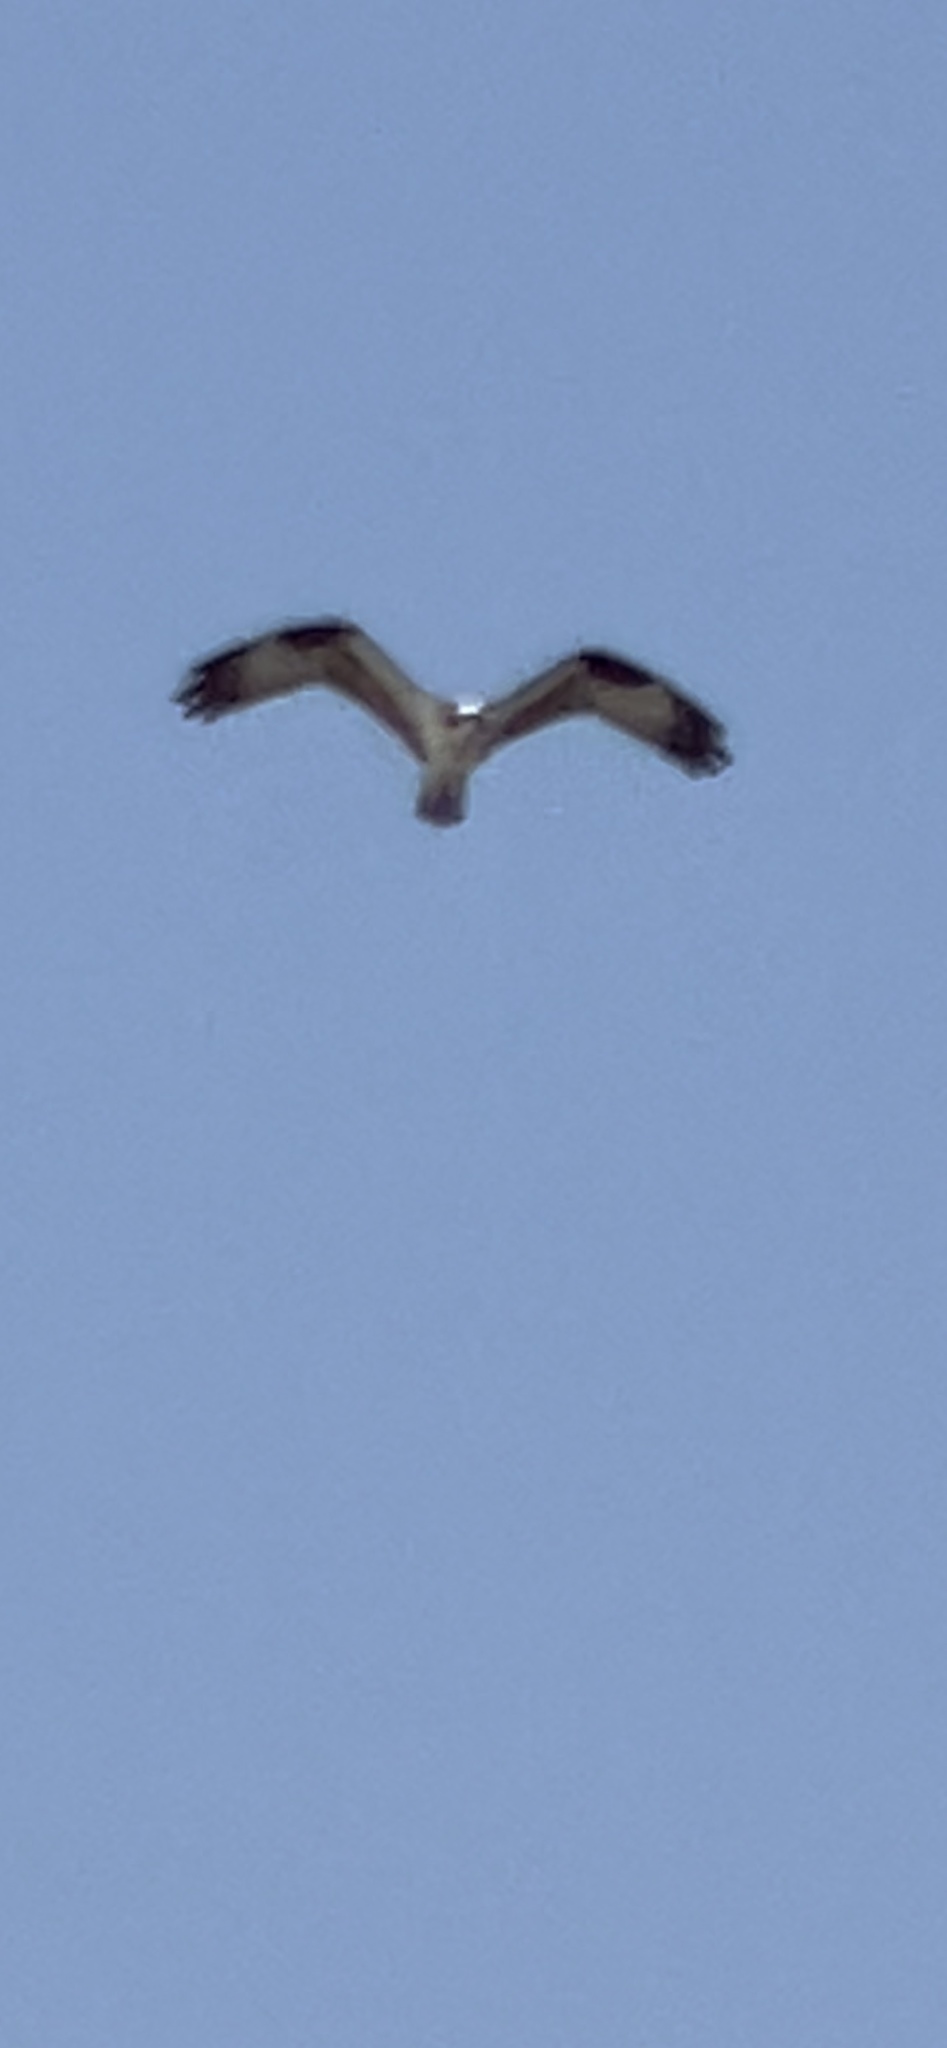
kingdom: Animalia
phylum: Chordata
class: Aves
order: Accipitriformes
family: Pandionidae
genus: Pandion
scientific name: Pandion haliaetus
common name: Osprey
